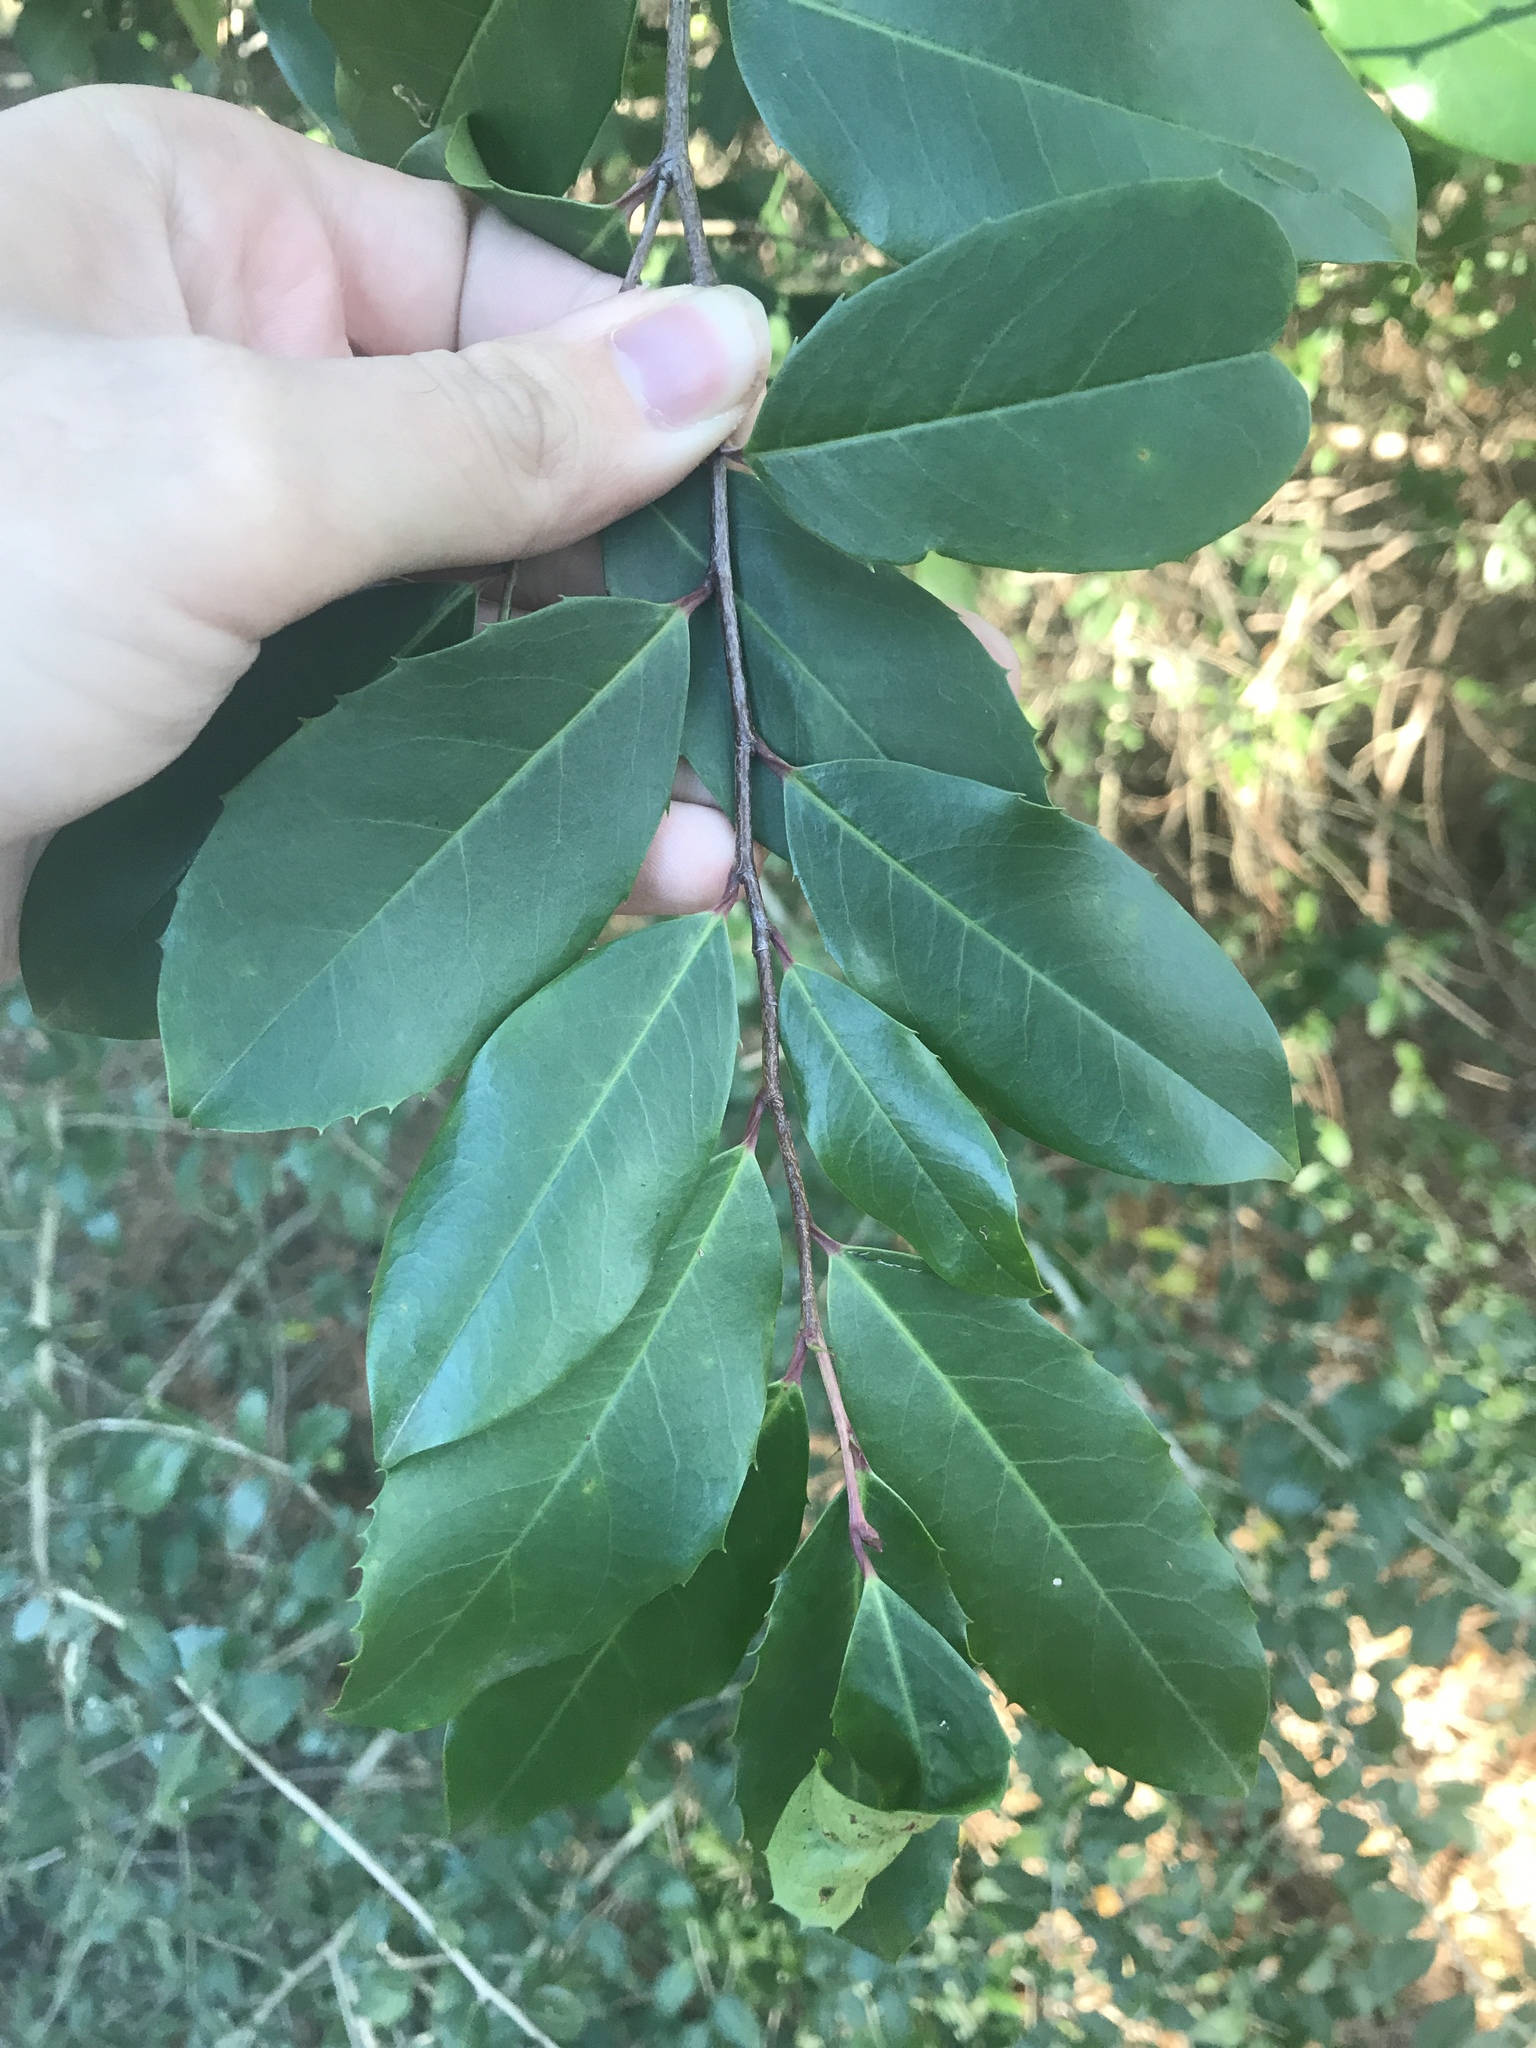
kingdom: Plantae
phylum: Tracheophyta
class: Magnoliopsida
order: Rosales
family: Rosaceae
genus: Prunus
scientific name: Prunus caroliniana
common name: Carolina laurel cherry
